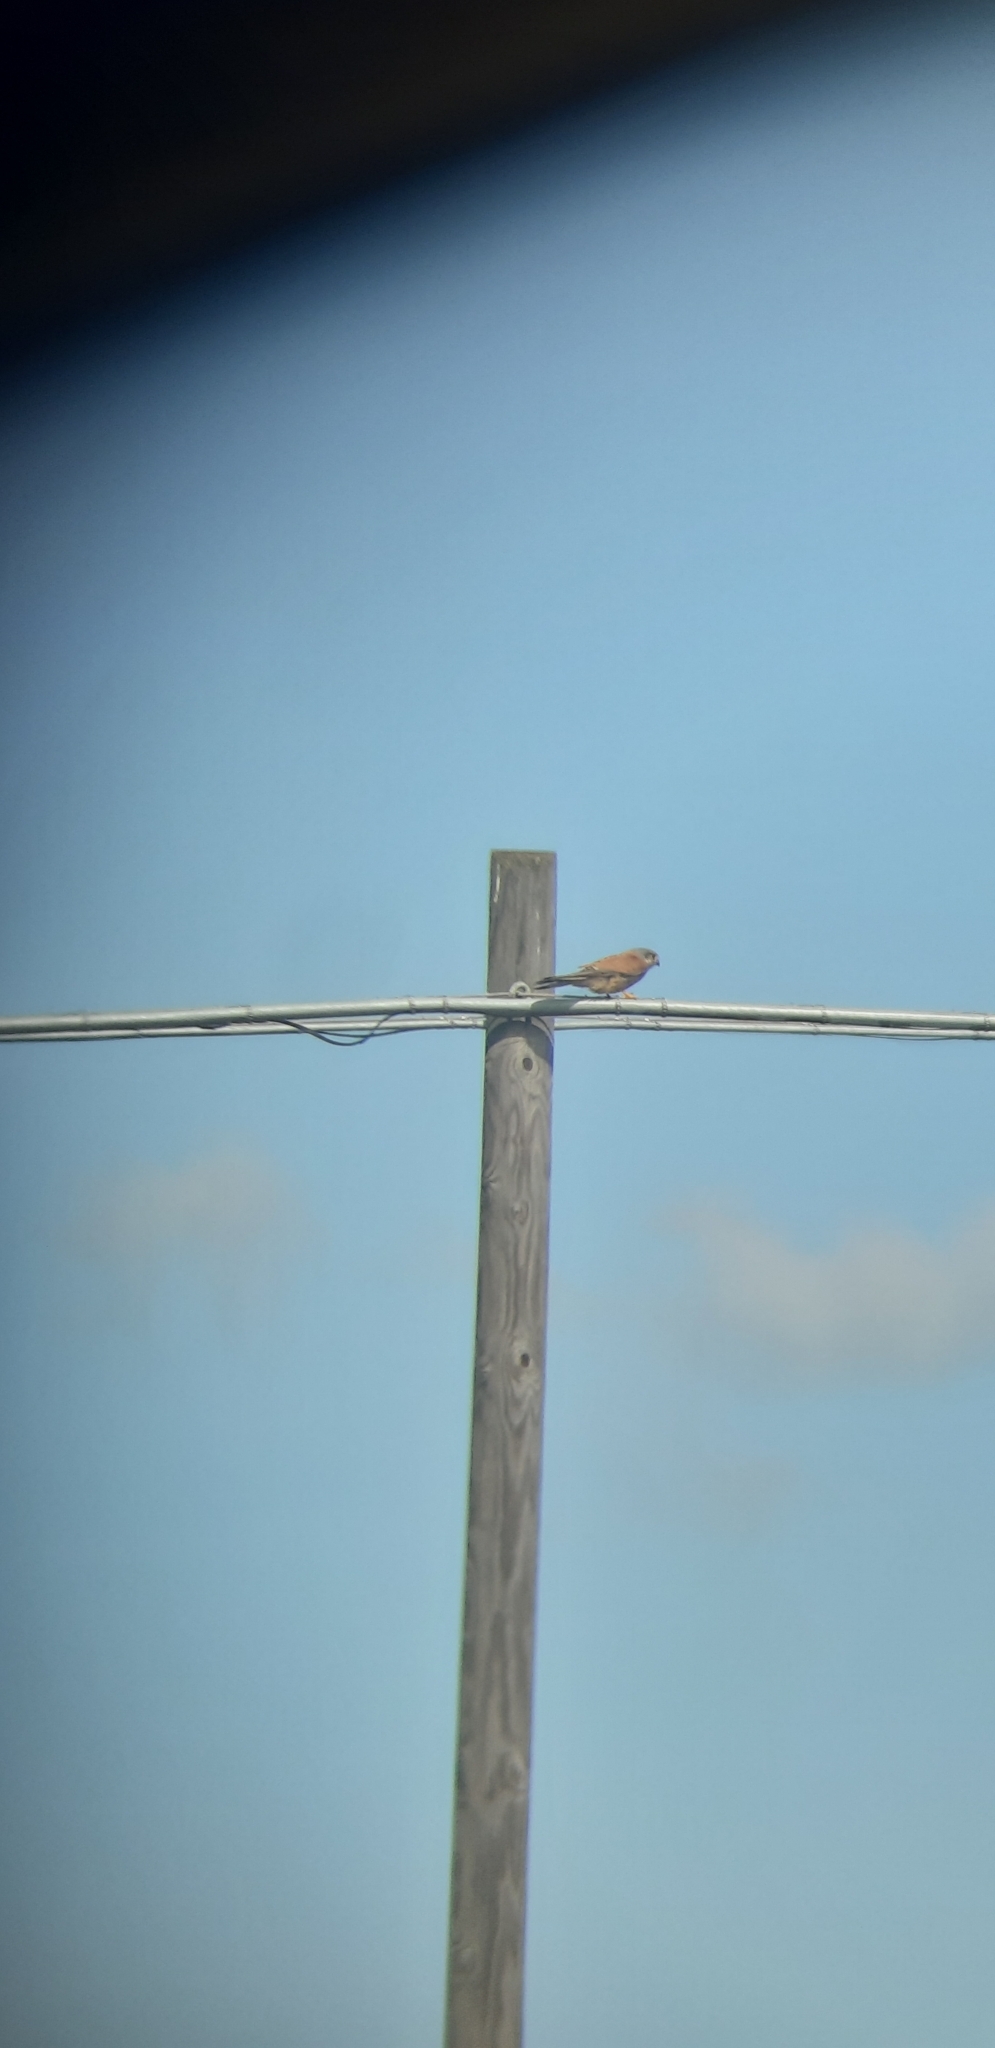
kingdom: Animalia
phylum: Chordata
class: Aves
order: Falconiformes
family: Falconidae
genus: Falco
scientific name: Falco naumanni
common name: Lesser kestrel
